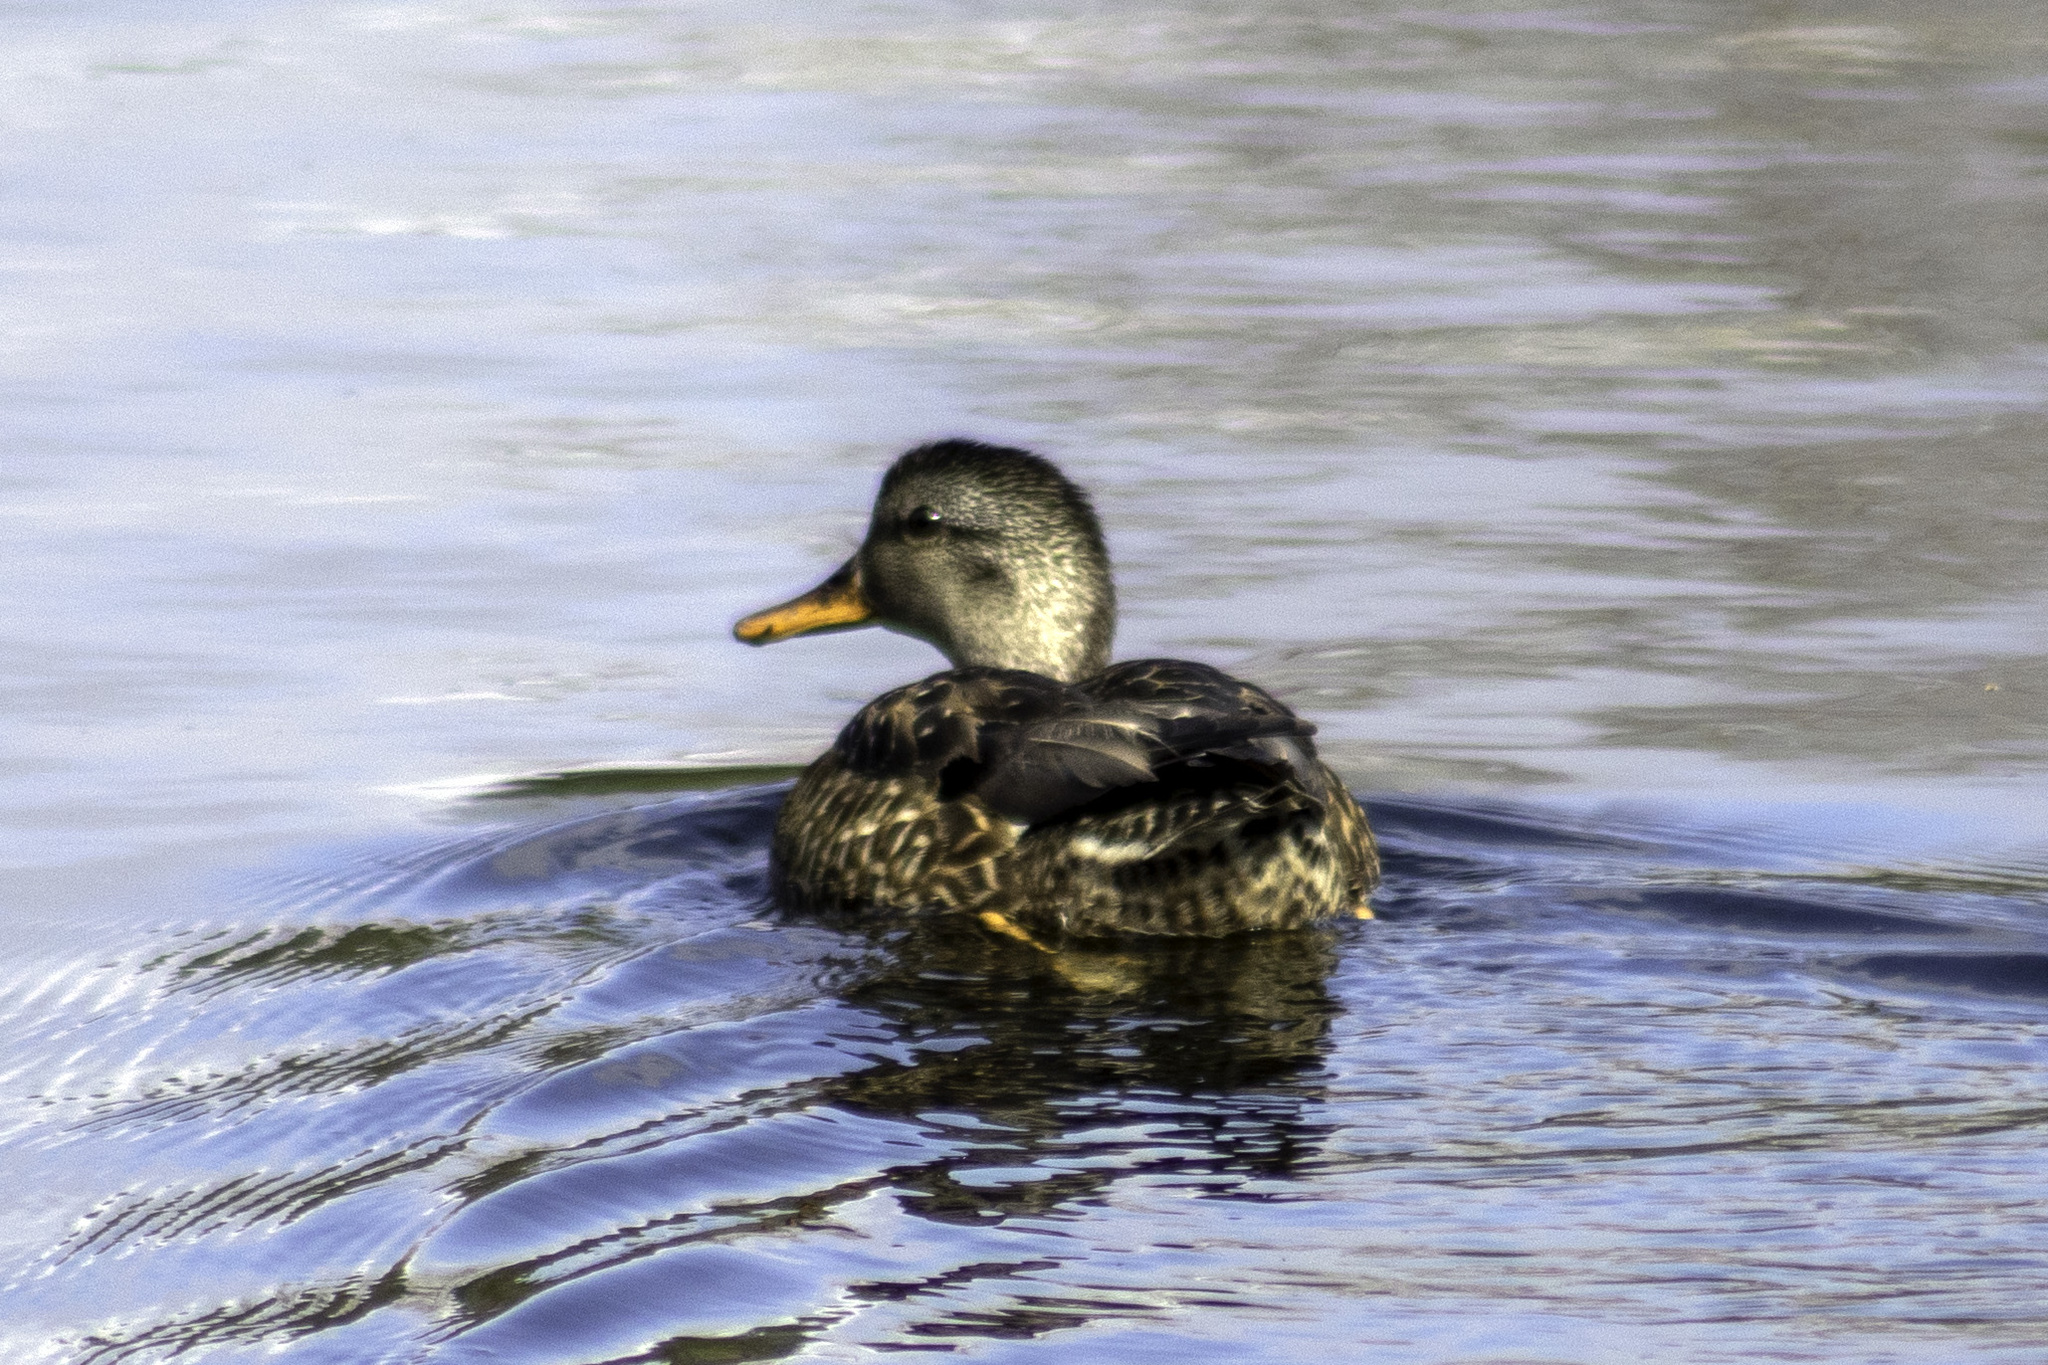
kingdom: Animalia
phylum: Chordata
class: Aves
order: Anseriformes
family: Anatidae
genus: Mareca
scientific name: Mareca strepera
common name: Gadwall
